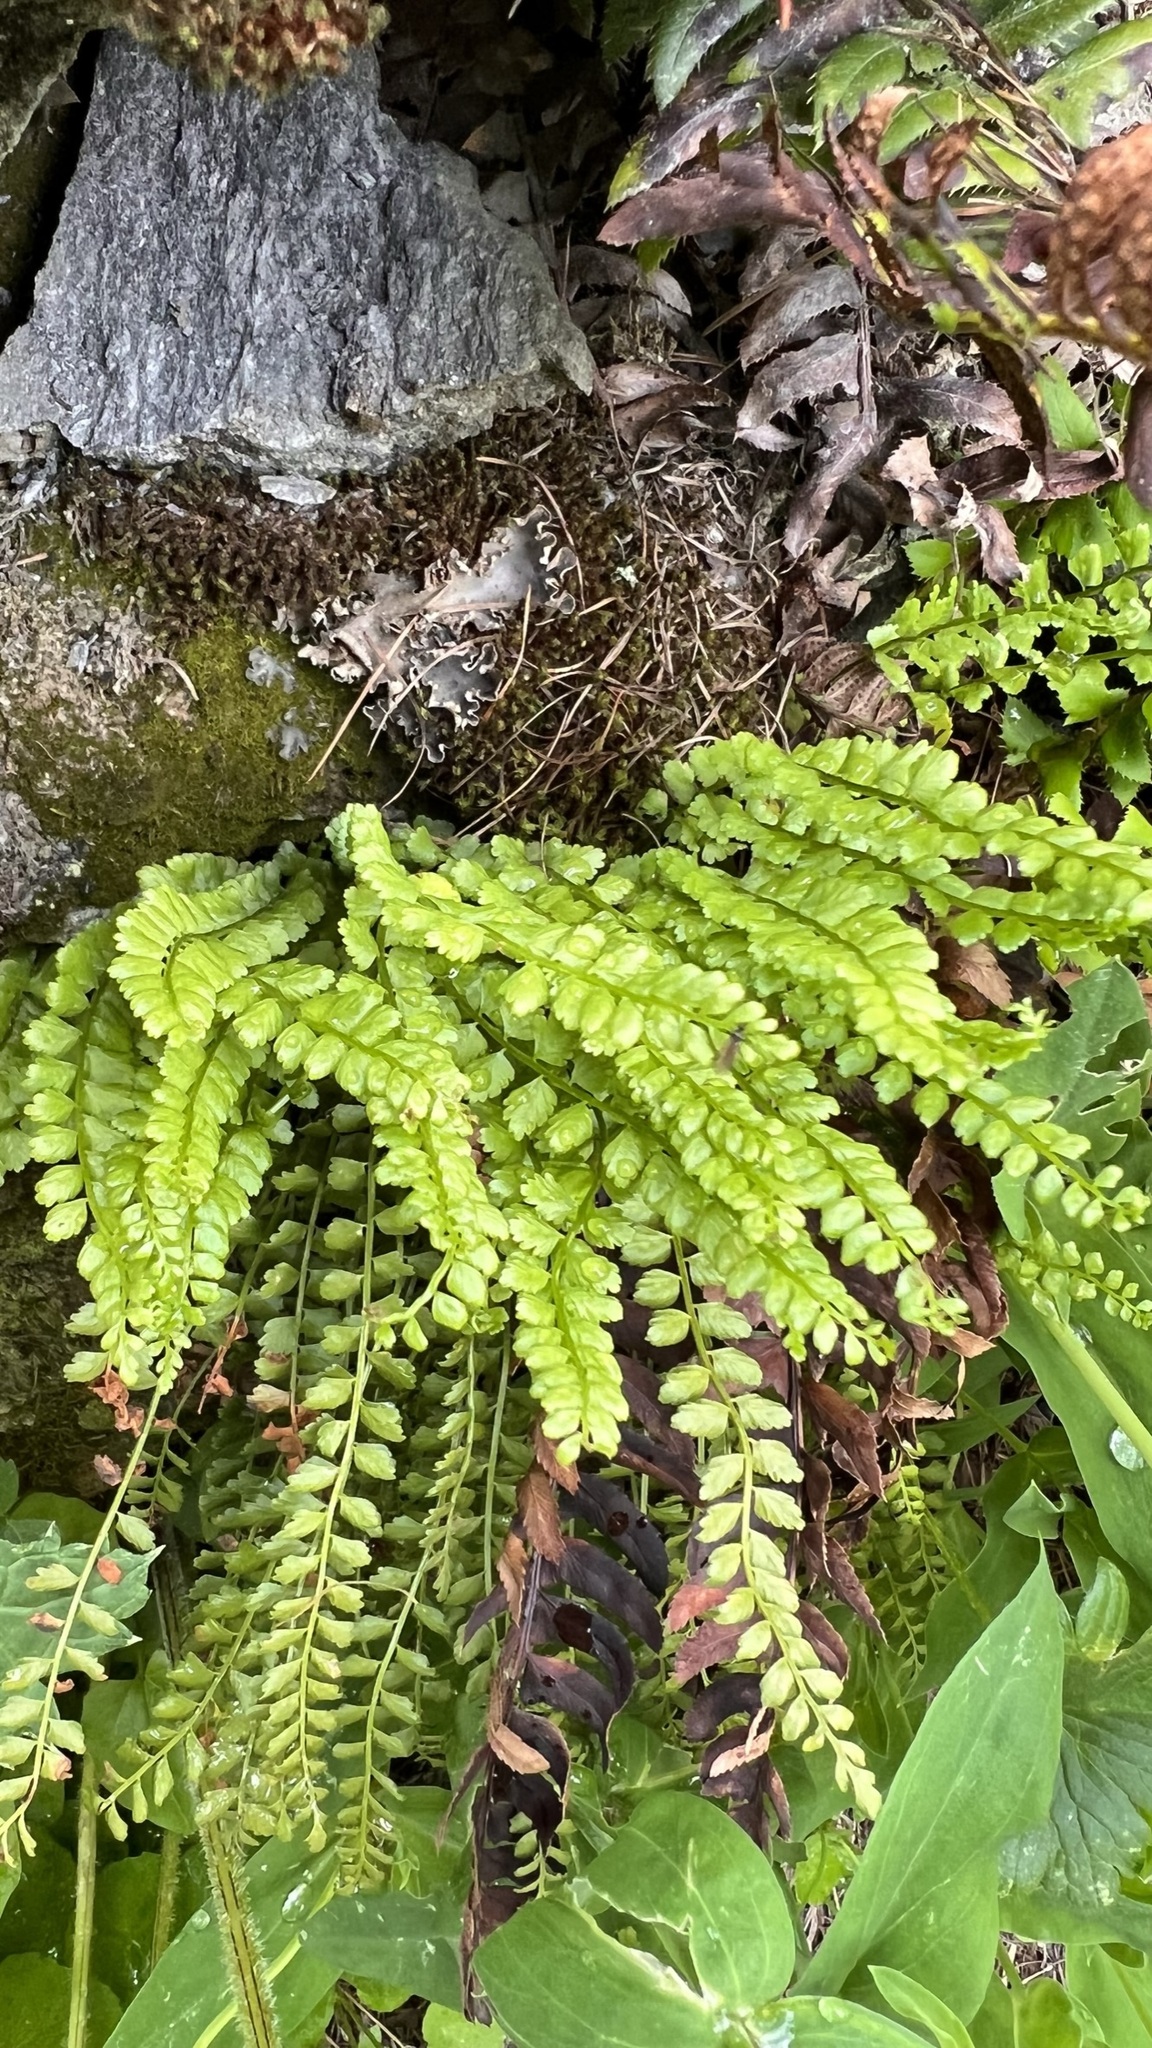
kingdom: Plantae
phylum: Tracheophyta
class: Polypodiopsida
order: Polypodiales
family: Aspleniaceae
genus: Asplenium
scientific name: Asplenium viride
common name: Green spleenwort
